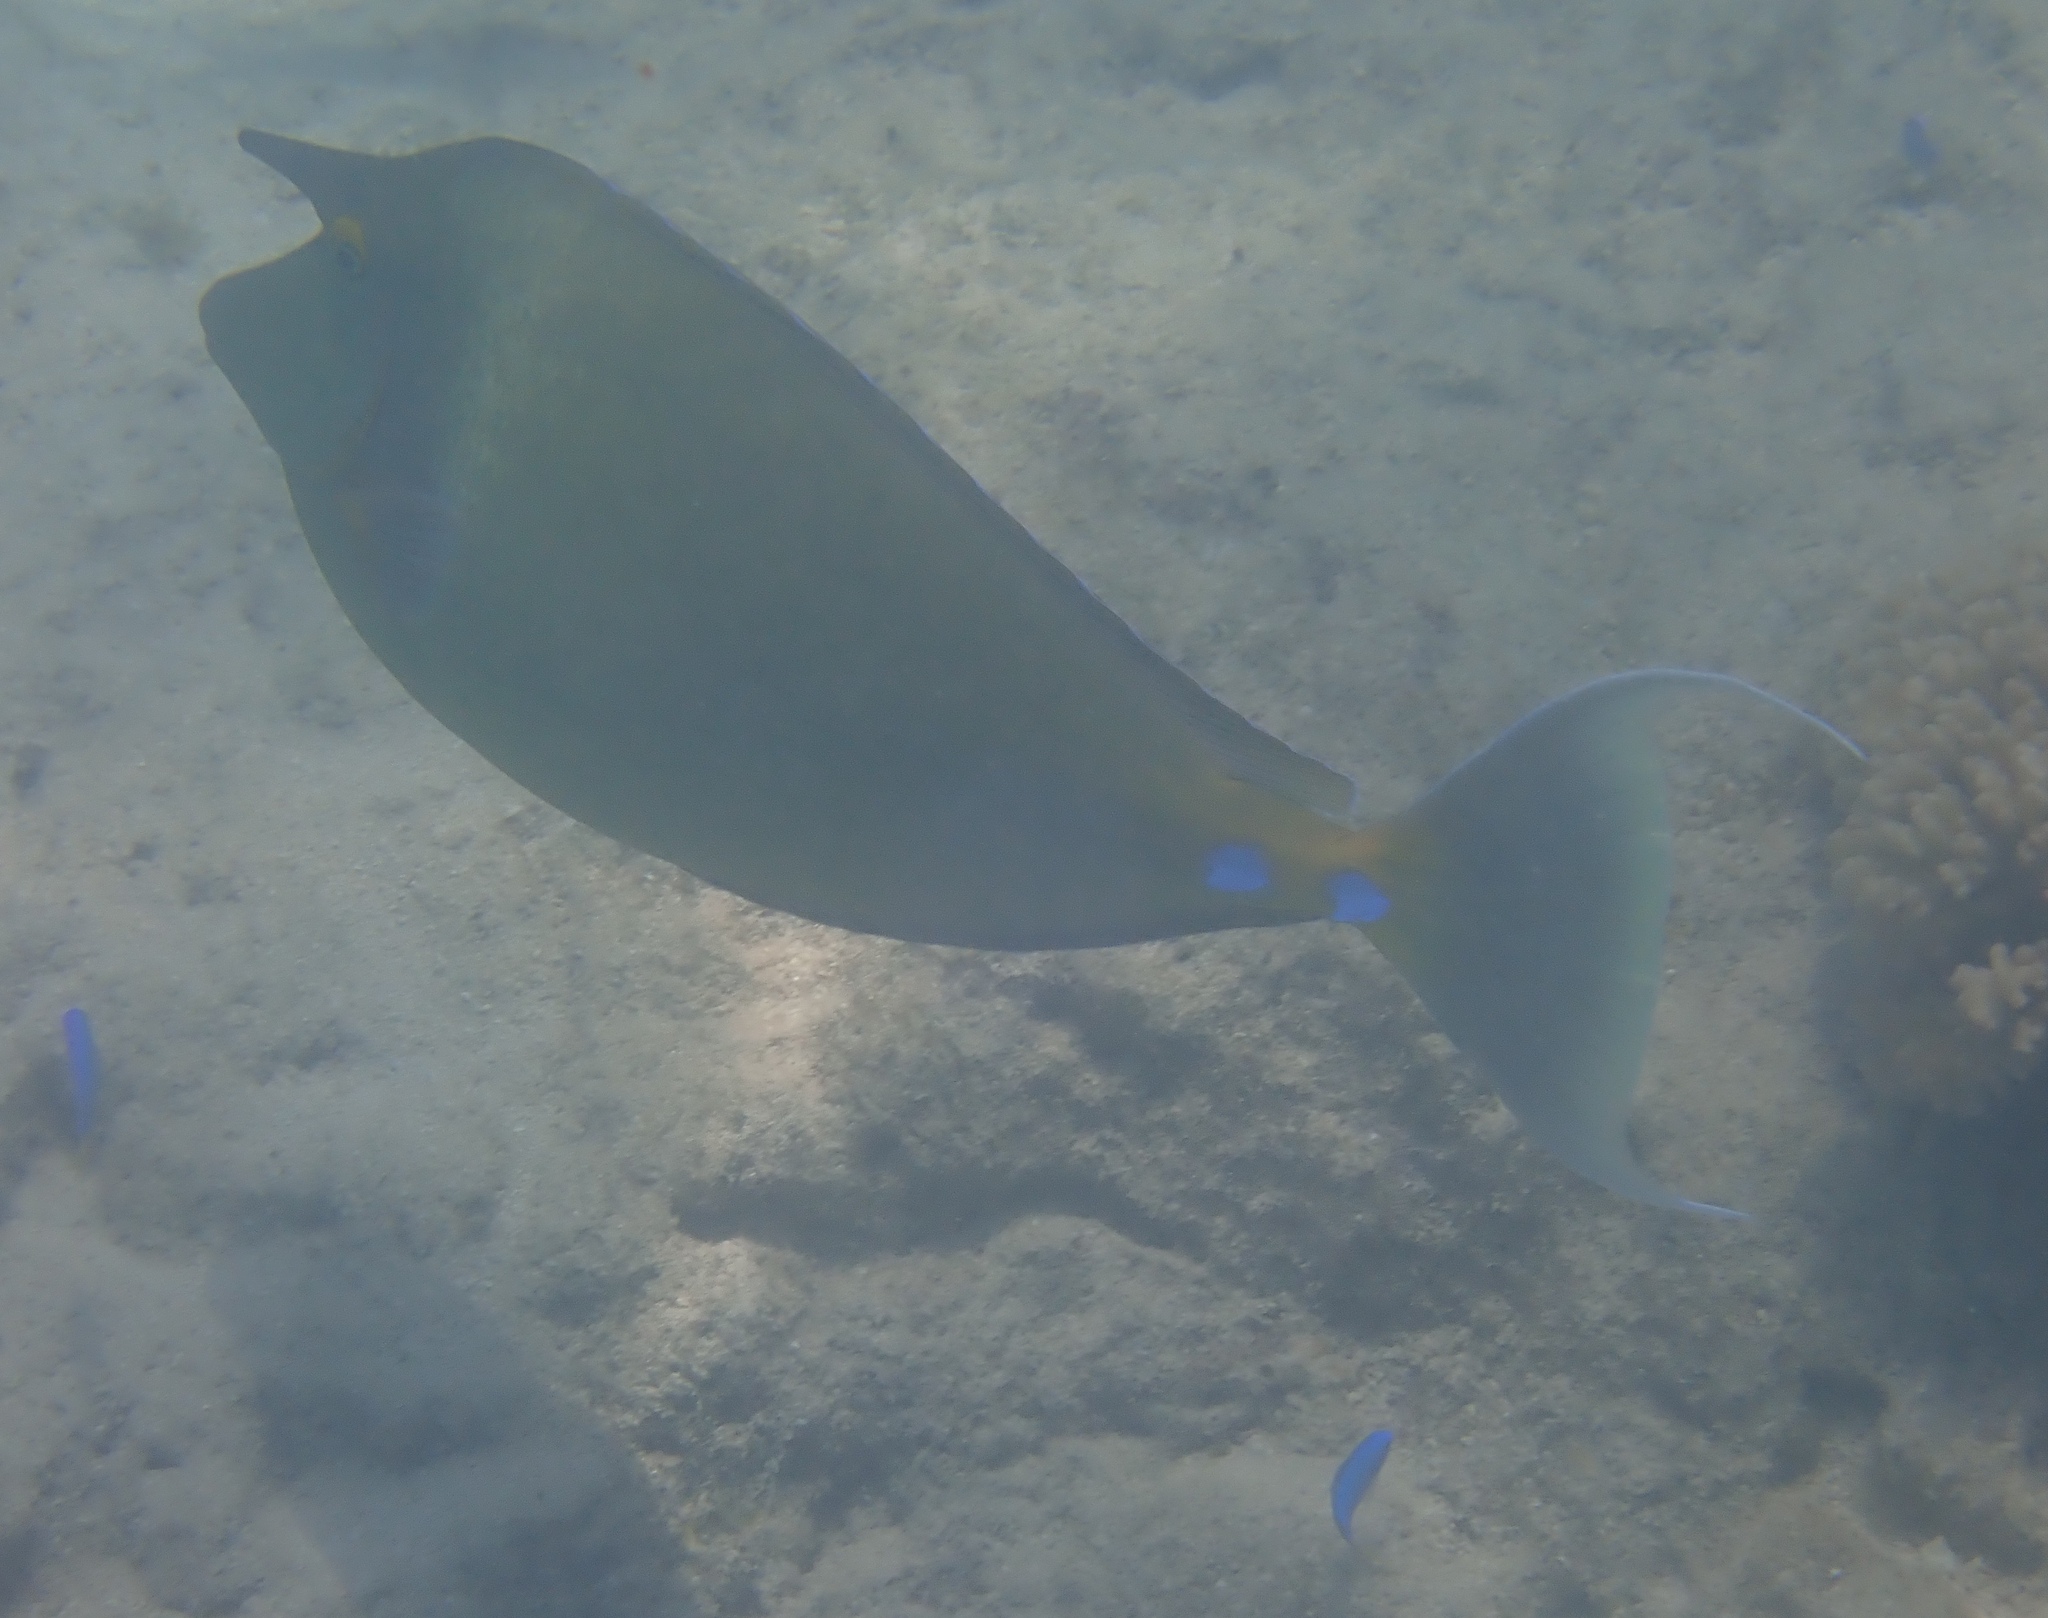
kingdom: Animalia
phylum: Chordata
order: Perciformes
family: Acanthuridae
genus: Naso
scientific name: Naso unicornis
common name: Bluespine unicornfish
